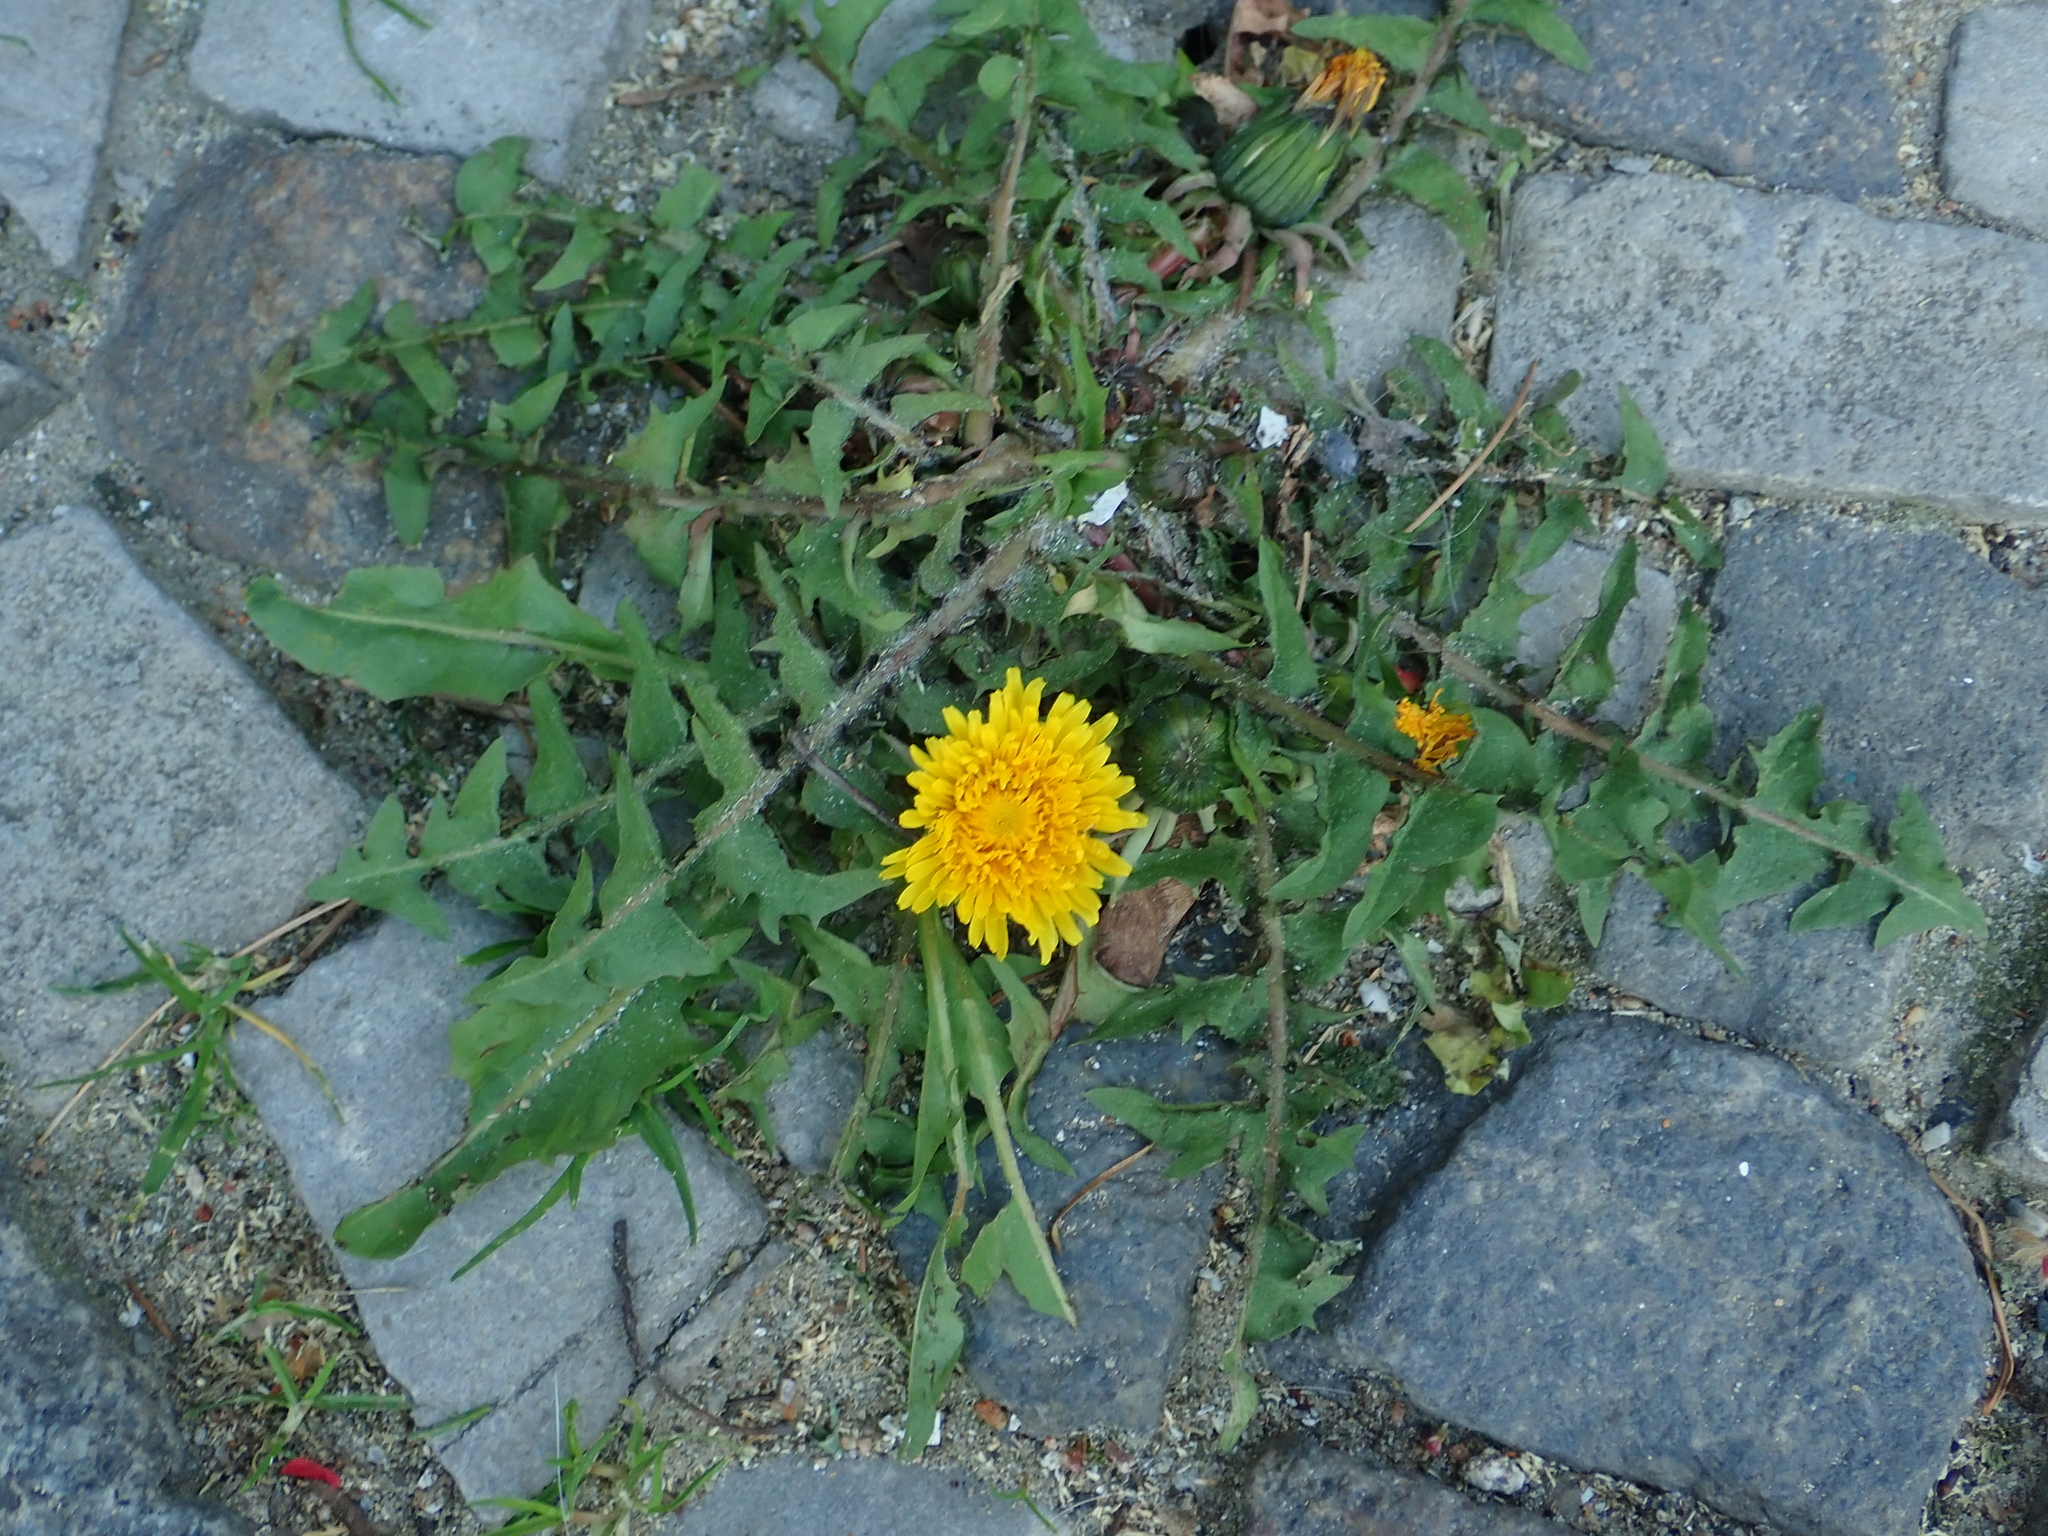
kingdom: Plantae
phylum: Tracheophyta
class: Magnoliopsida
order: Asterales
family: Asteraceae
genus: Taraxacum
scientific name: Taraxacum officinale
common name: Common dandelion
